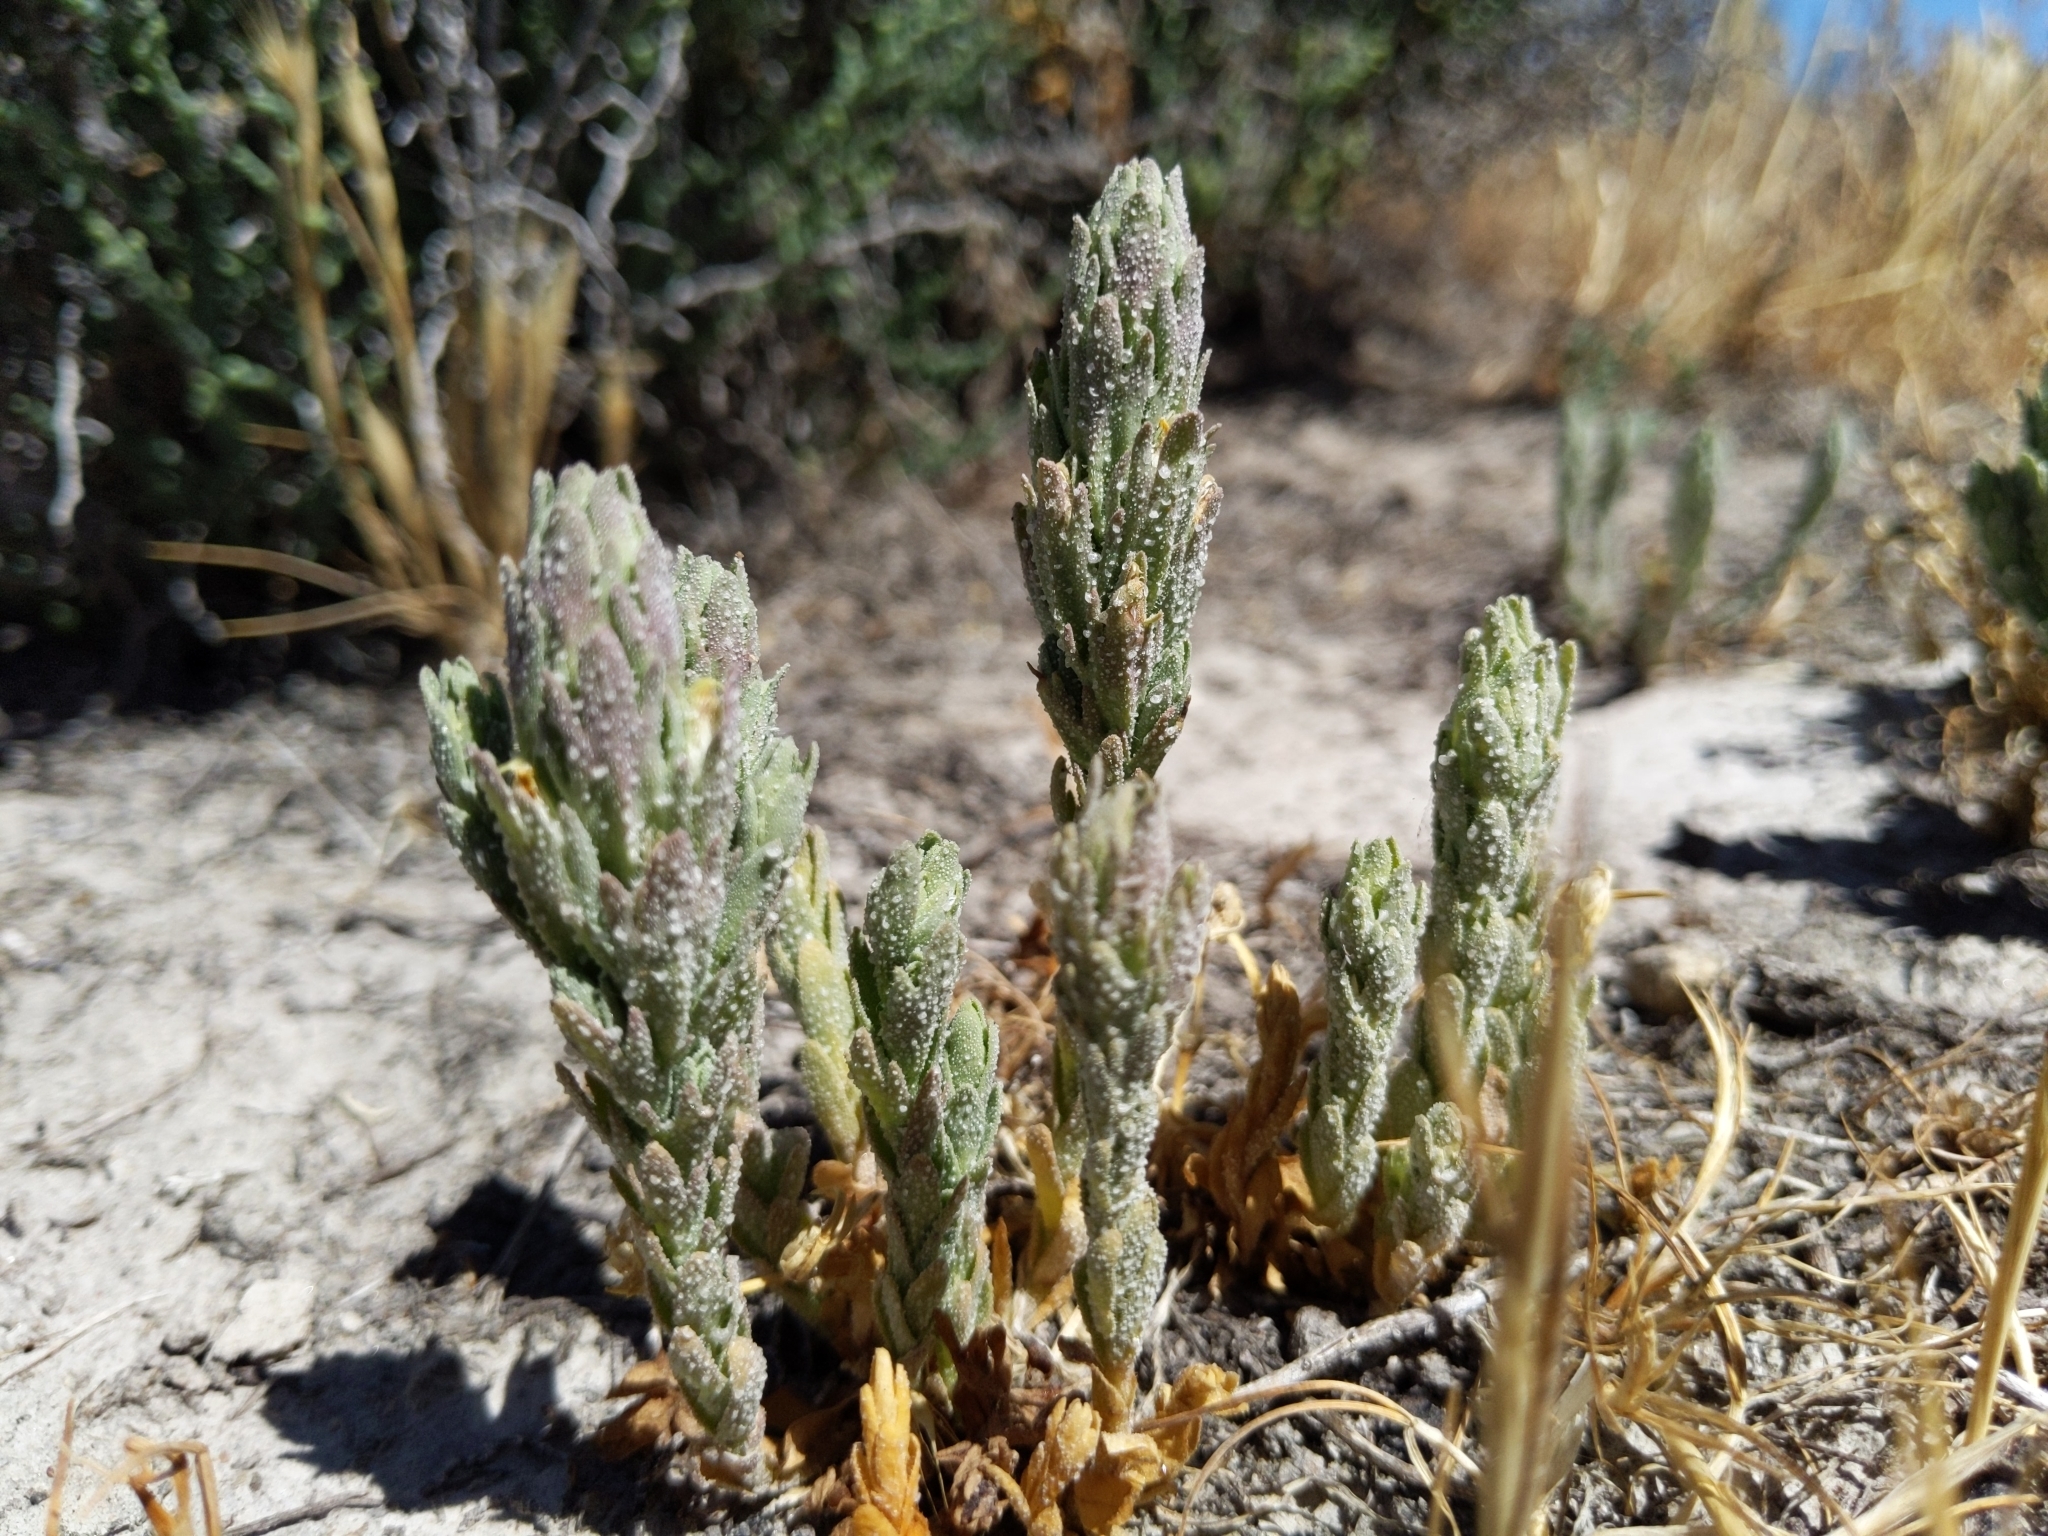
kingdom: Plantae
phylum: Tracheophyta
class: Magnoliopsida
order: Lamiales
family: Orobanchaceae
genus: Chloropyron
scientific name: Chloropyron palmatum
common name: Palmate salty bird's-beak
